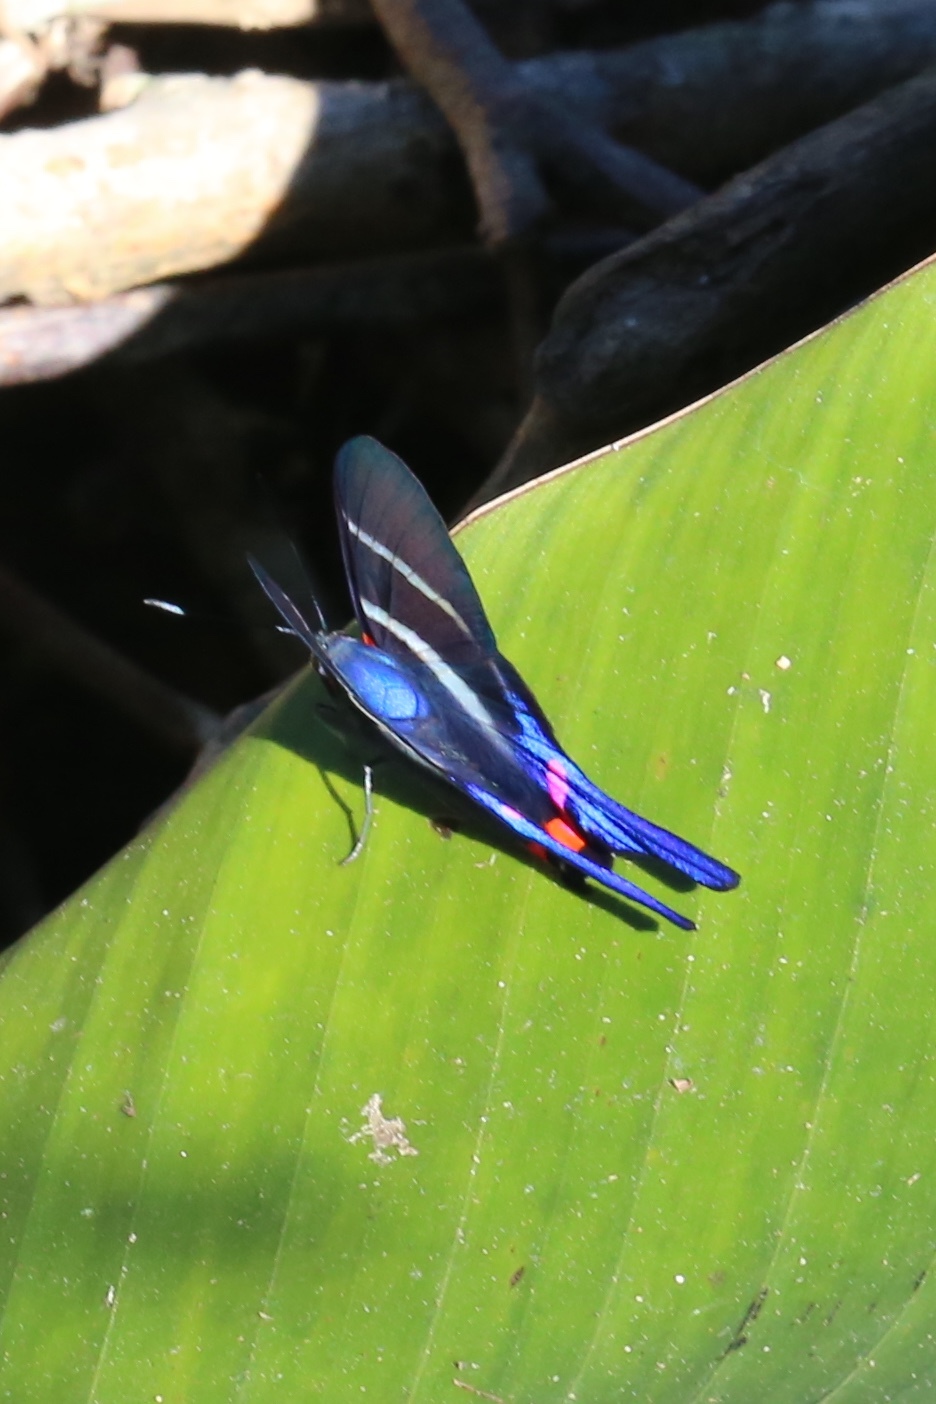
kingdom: Animalia
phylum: Arthropoda
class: Insecta
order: Lepidoptera
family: Riodinidae
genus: Rhetus
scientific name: Rhetus arcius
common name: Long-tailed metalmark
